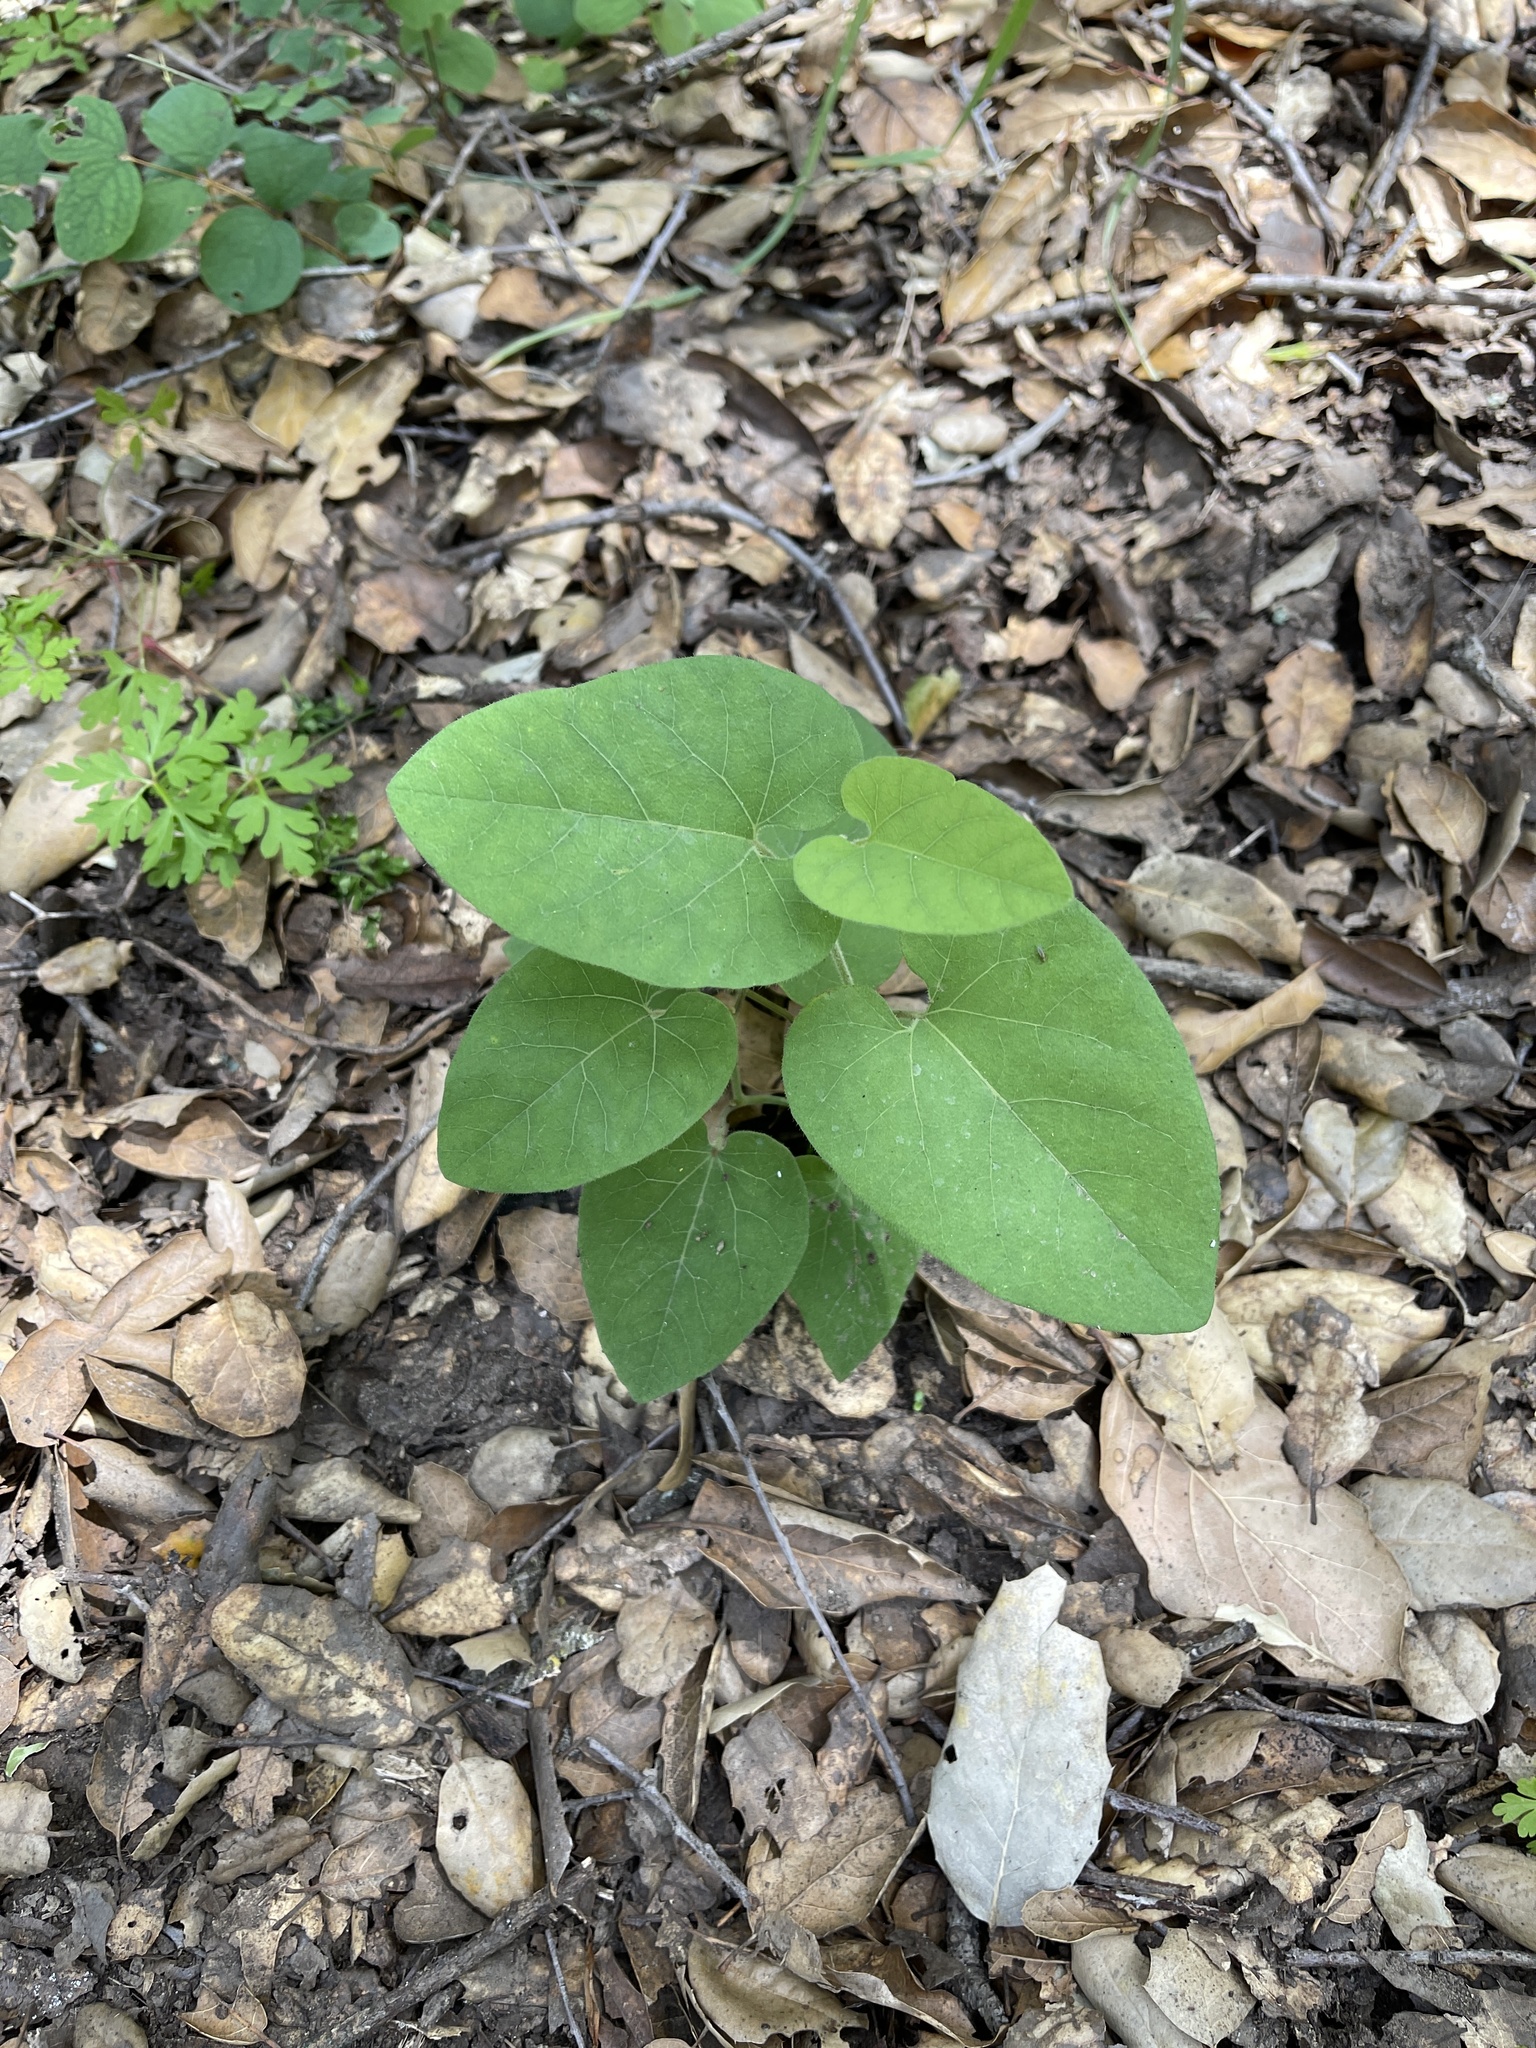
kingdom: Plantae
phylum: Tracheophyta
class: Magnoliopsida
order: Piperales
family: Aristolochiaceae
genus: Isotrema
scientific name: Isotrema californicum
